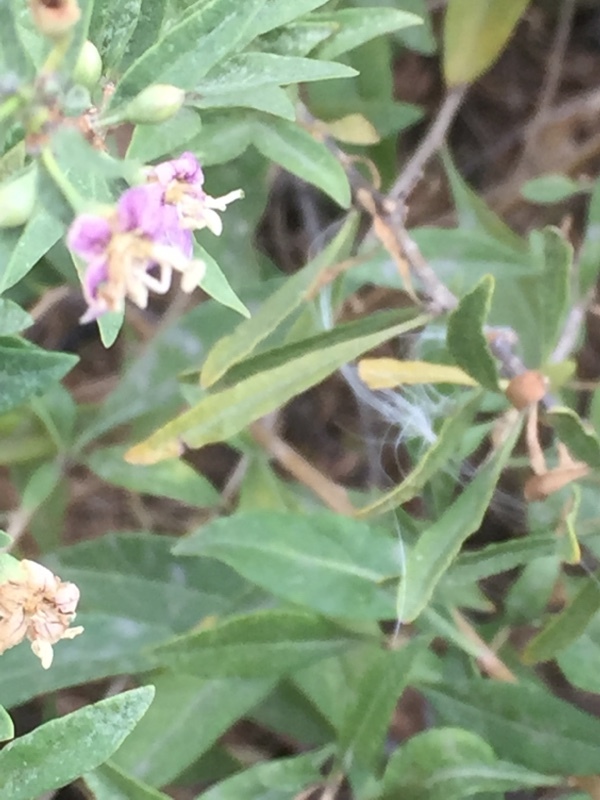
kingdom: Plantae
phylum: Tracheophyta
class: Magnoliopsida
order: Solanales
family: Solanaceae
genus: Lycium
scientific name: Lycium barbarum
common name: Duke of argyll's teaplant
